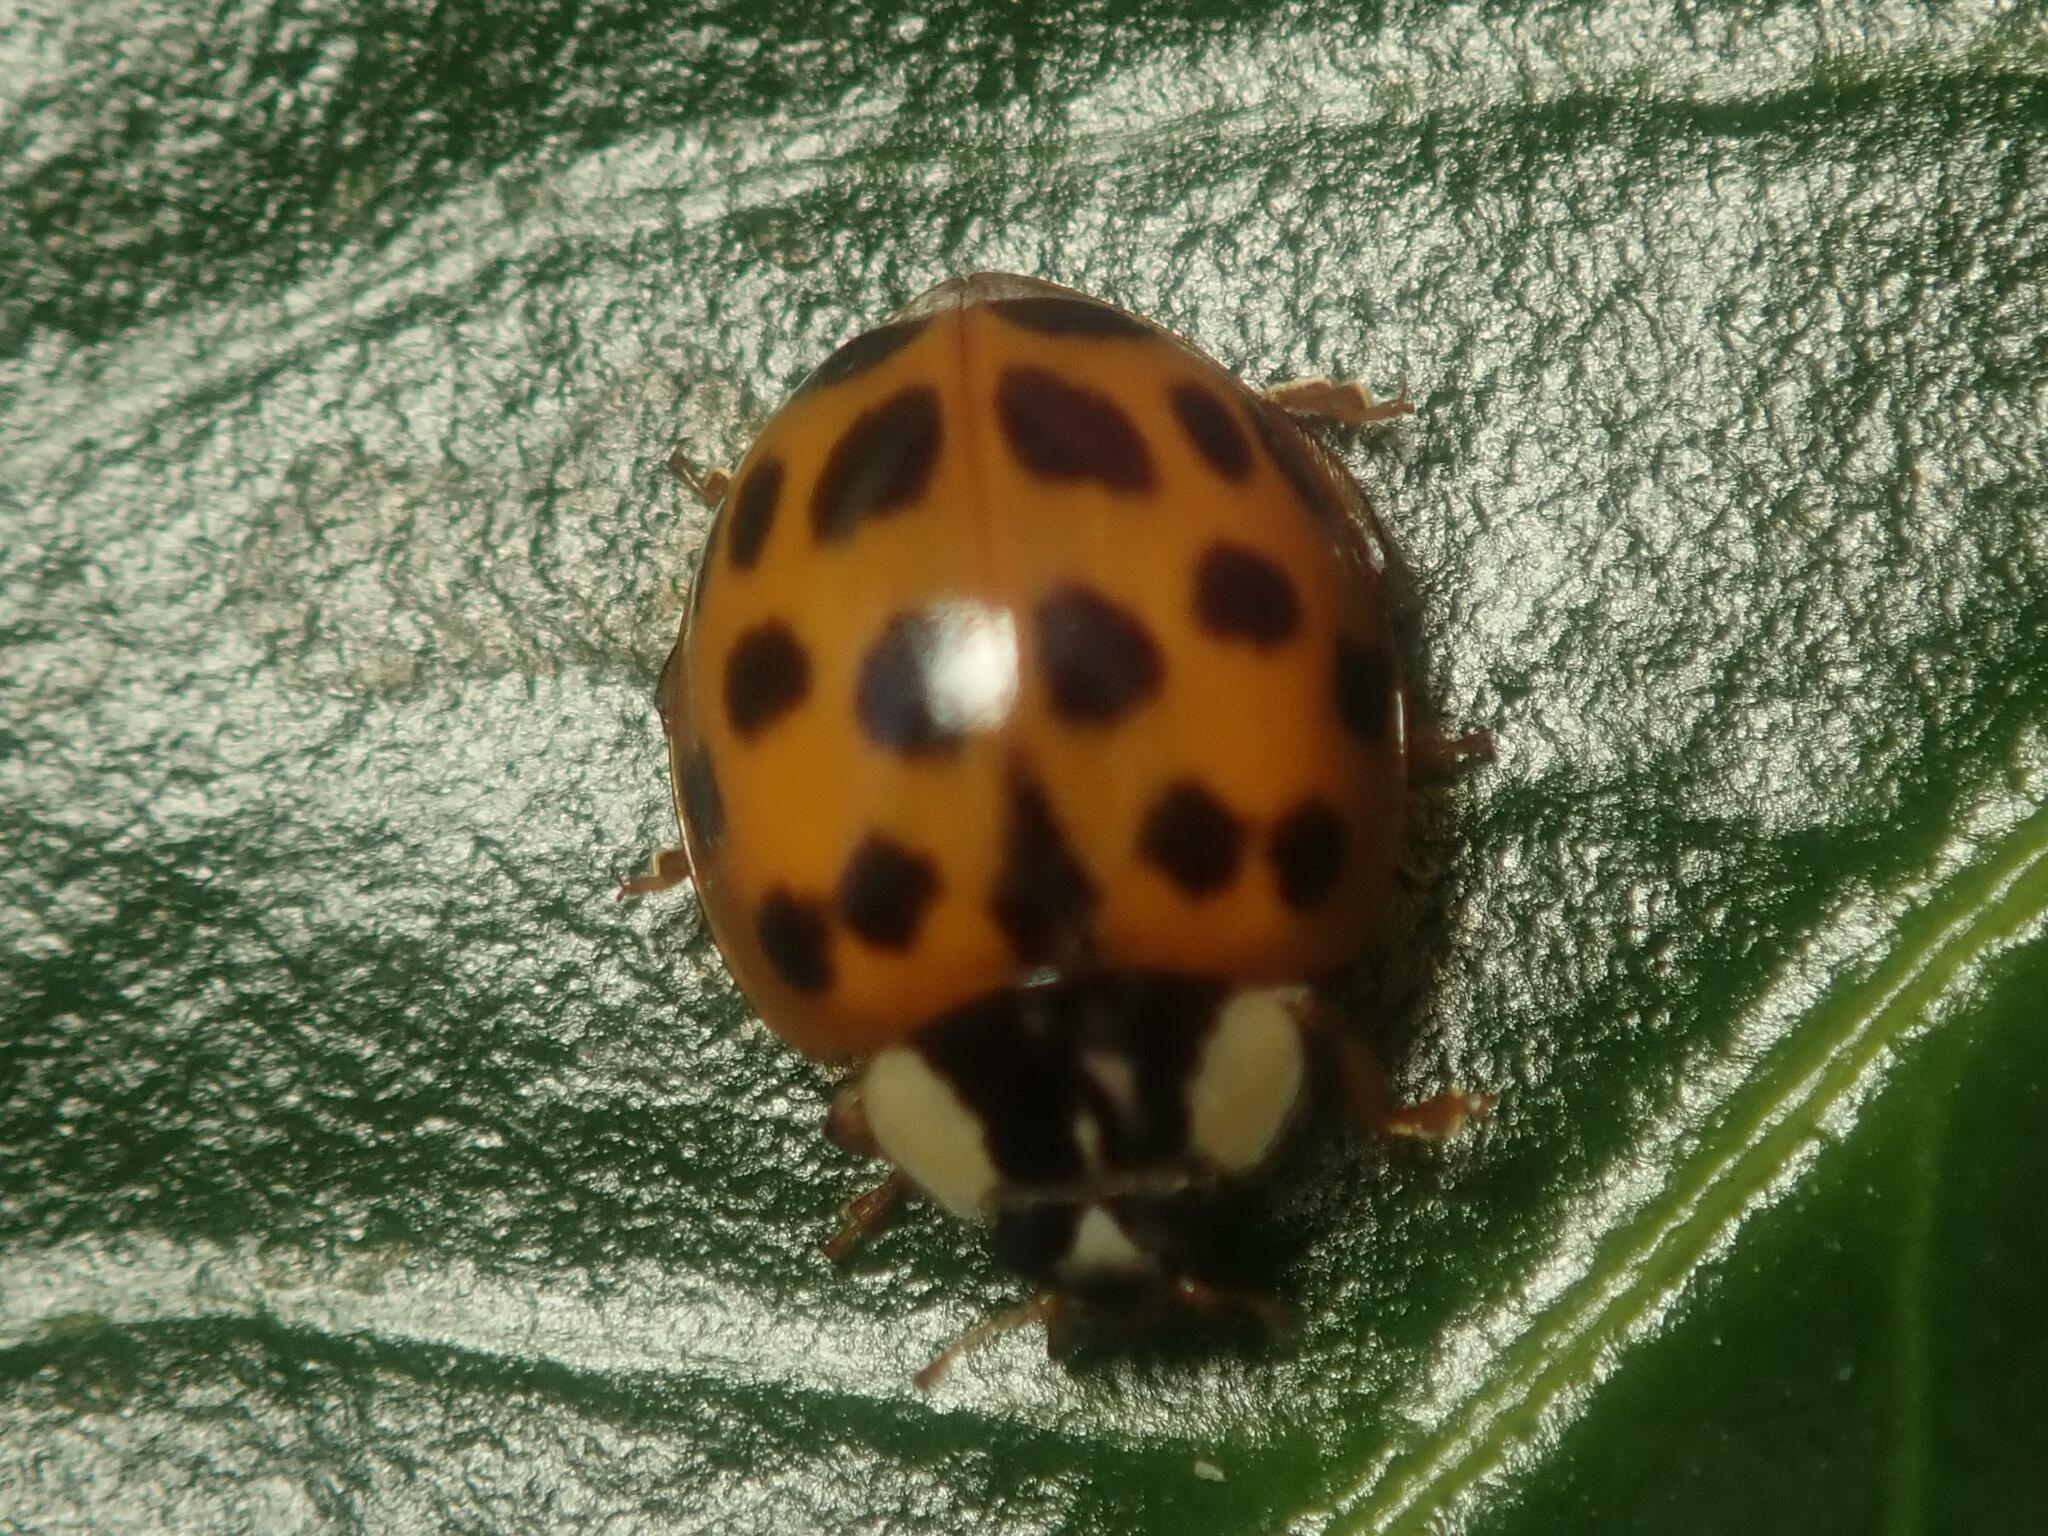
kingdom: Animalia
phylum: Arthropoda
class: Insecta
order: Coleoptera
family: Coccinellidae
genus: Harmonia
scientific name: Harmonia axyridis
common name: Harlequin ladybird
